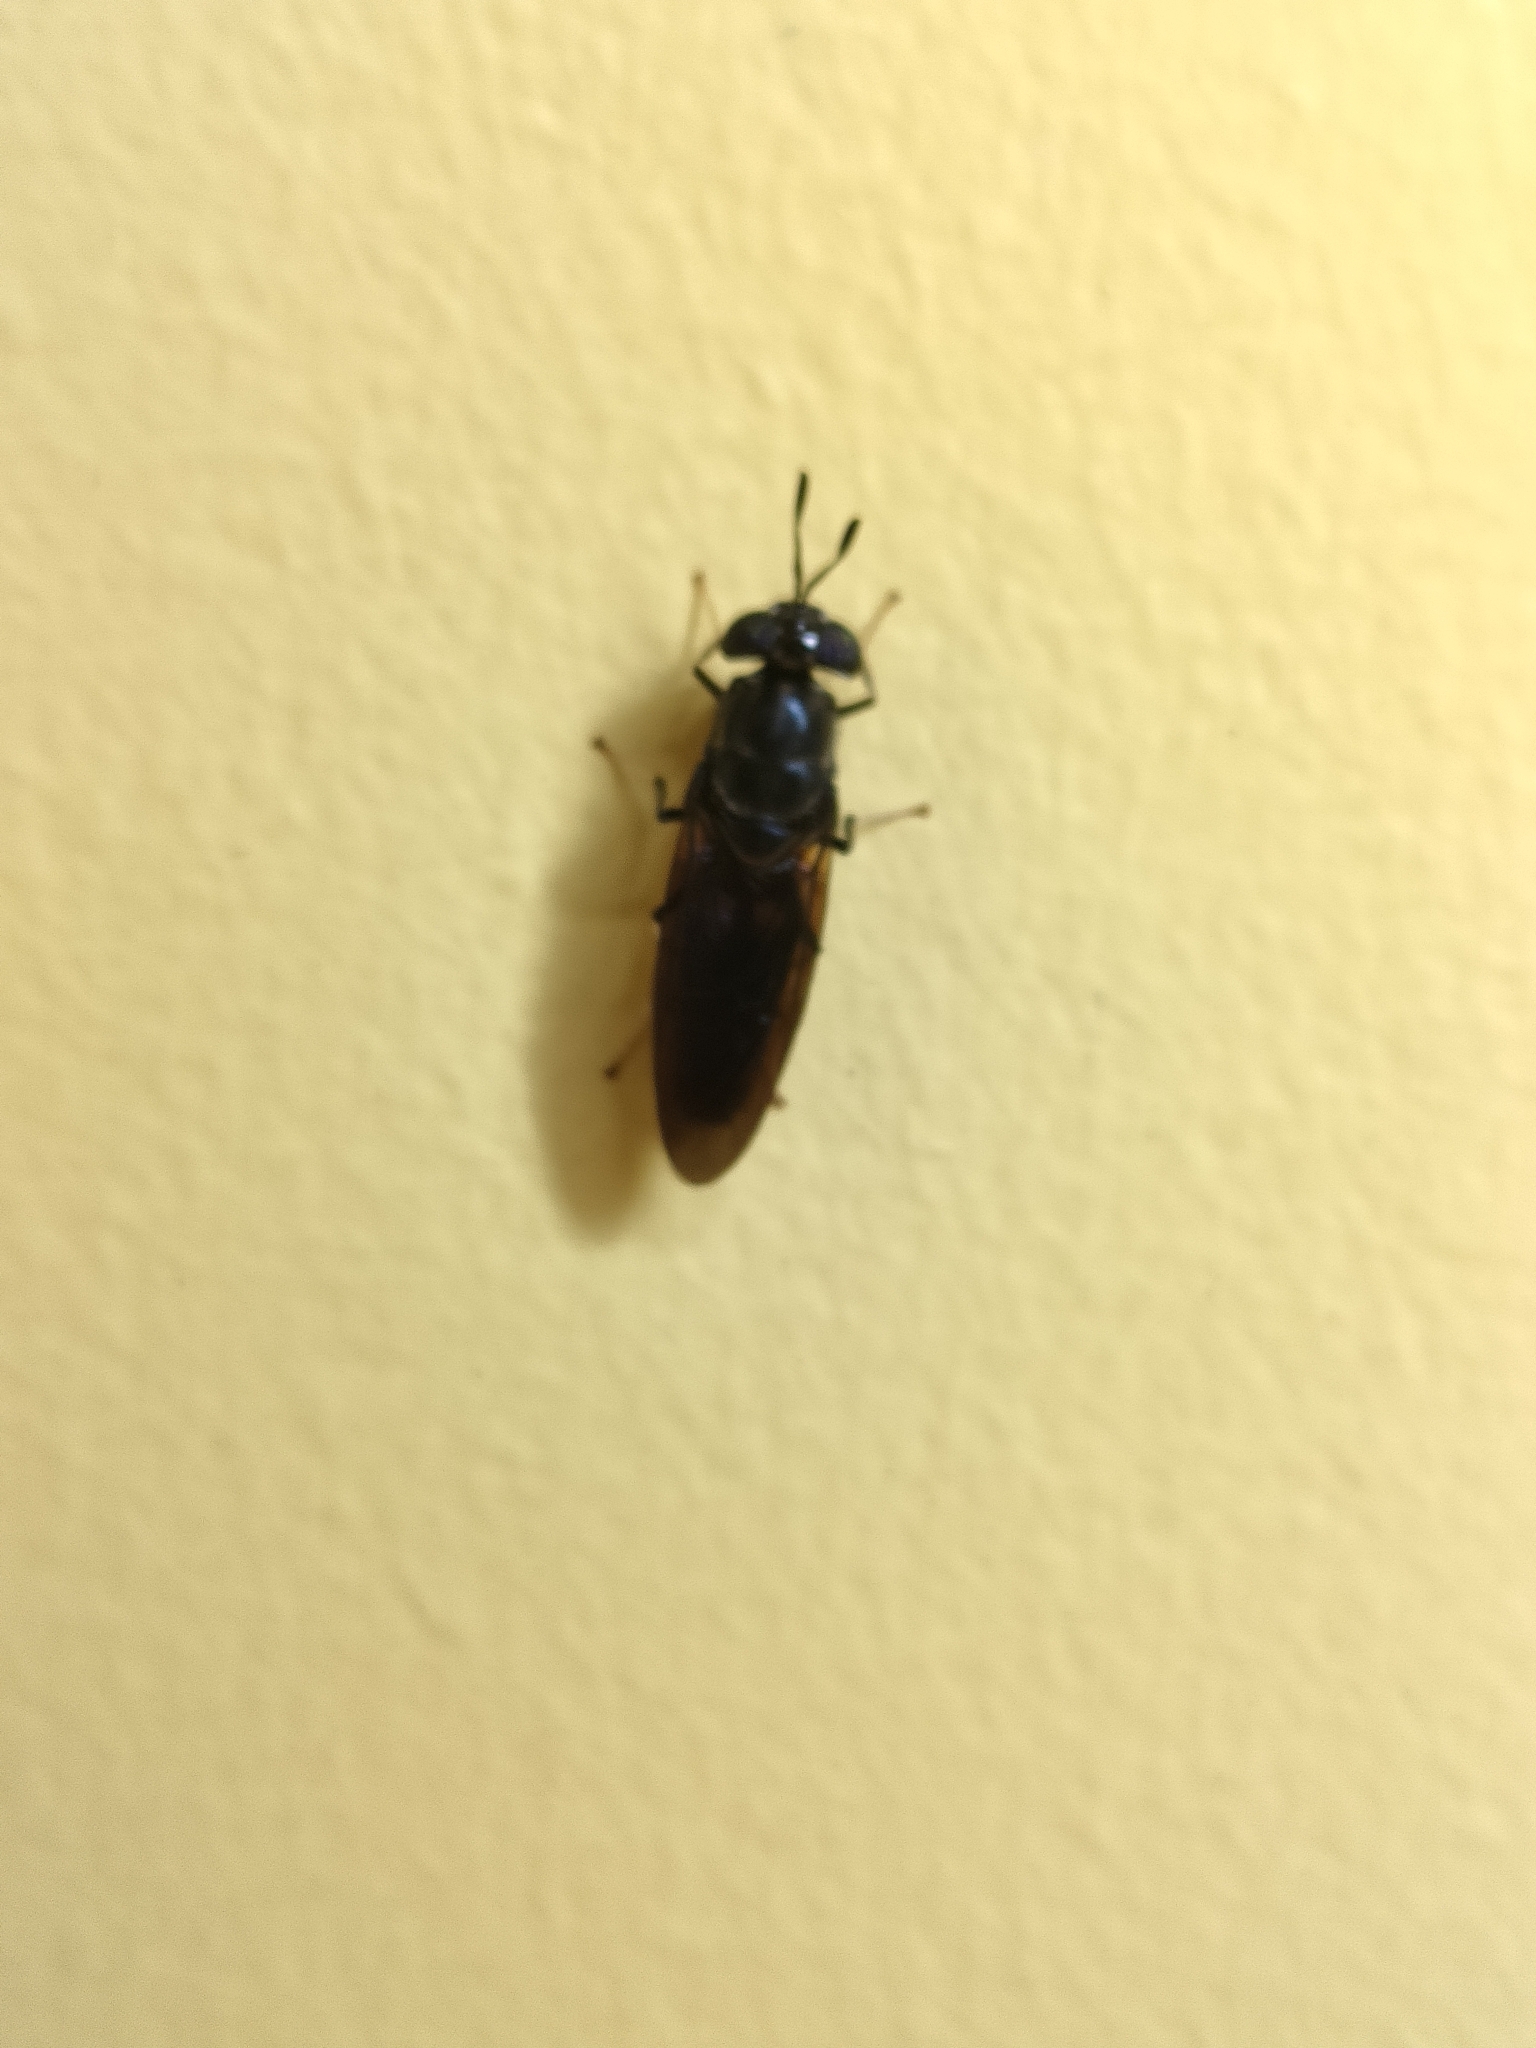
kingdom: Animalia
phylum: Arthropoda
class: Insecta
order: Diptera
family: Stratiomyidae
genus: Hermetia
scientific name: Hermetia illucens
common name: Black soldier fly
